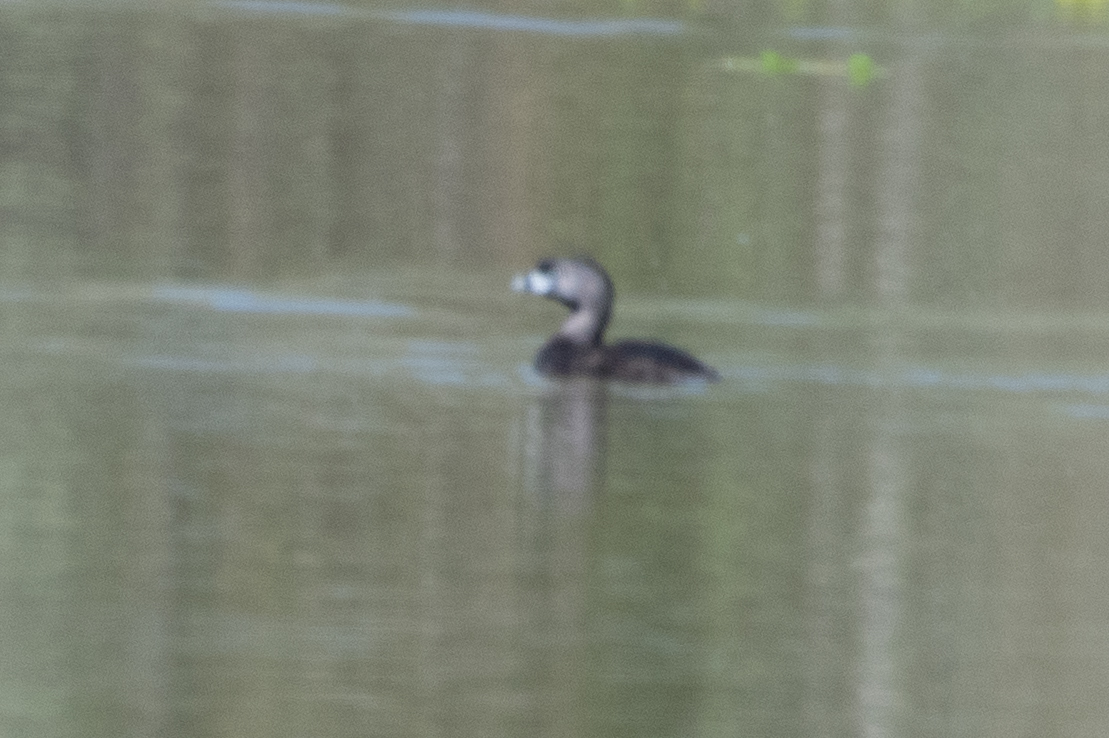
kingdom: Animalia
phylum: Chordata
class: Aves
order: Podicipediformes
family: Podicipedidae
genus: Podilymbus
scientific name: Podilymbus podiceps
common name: Pied-billed grebe
